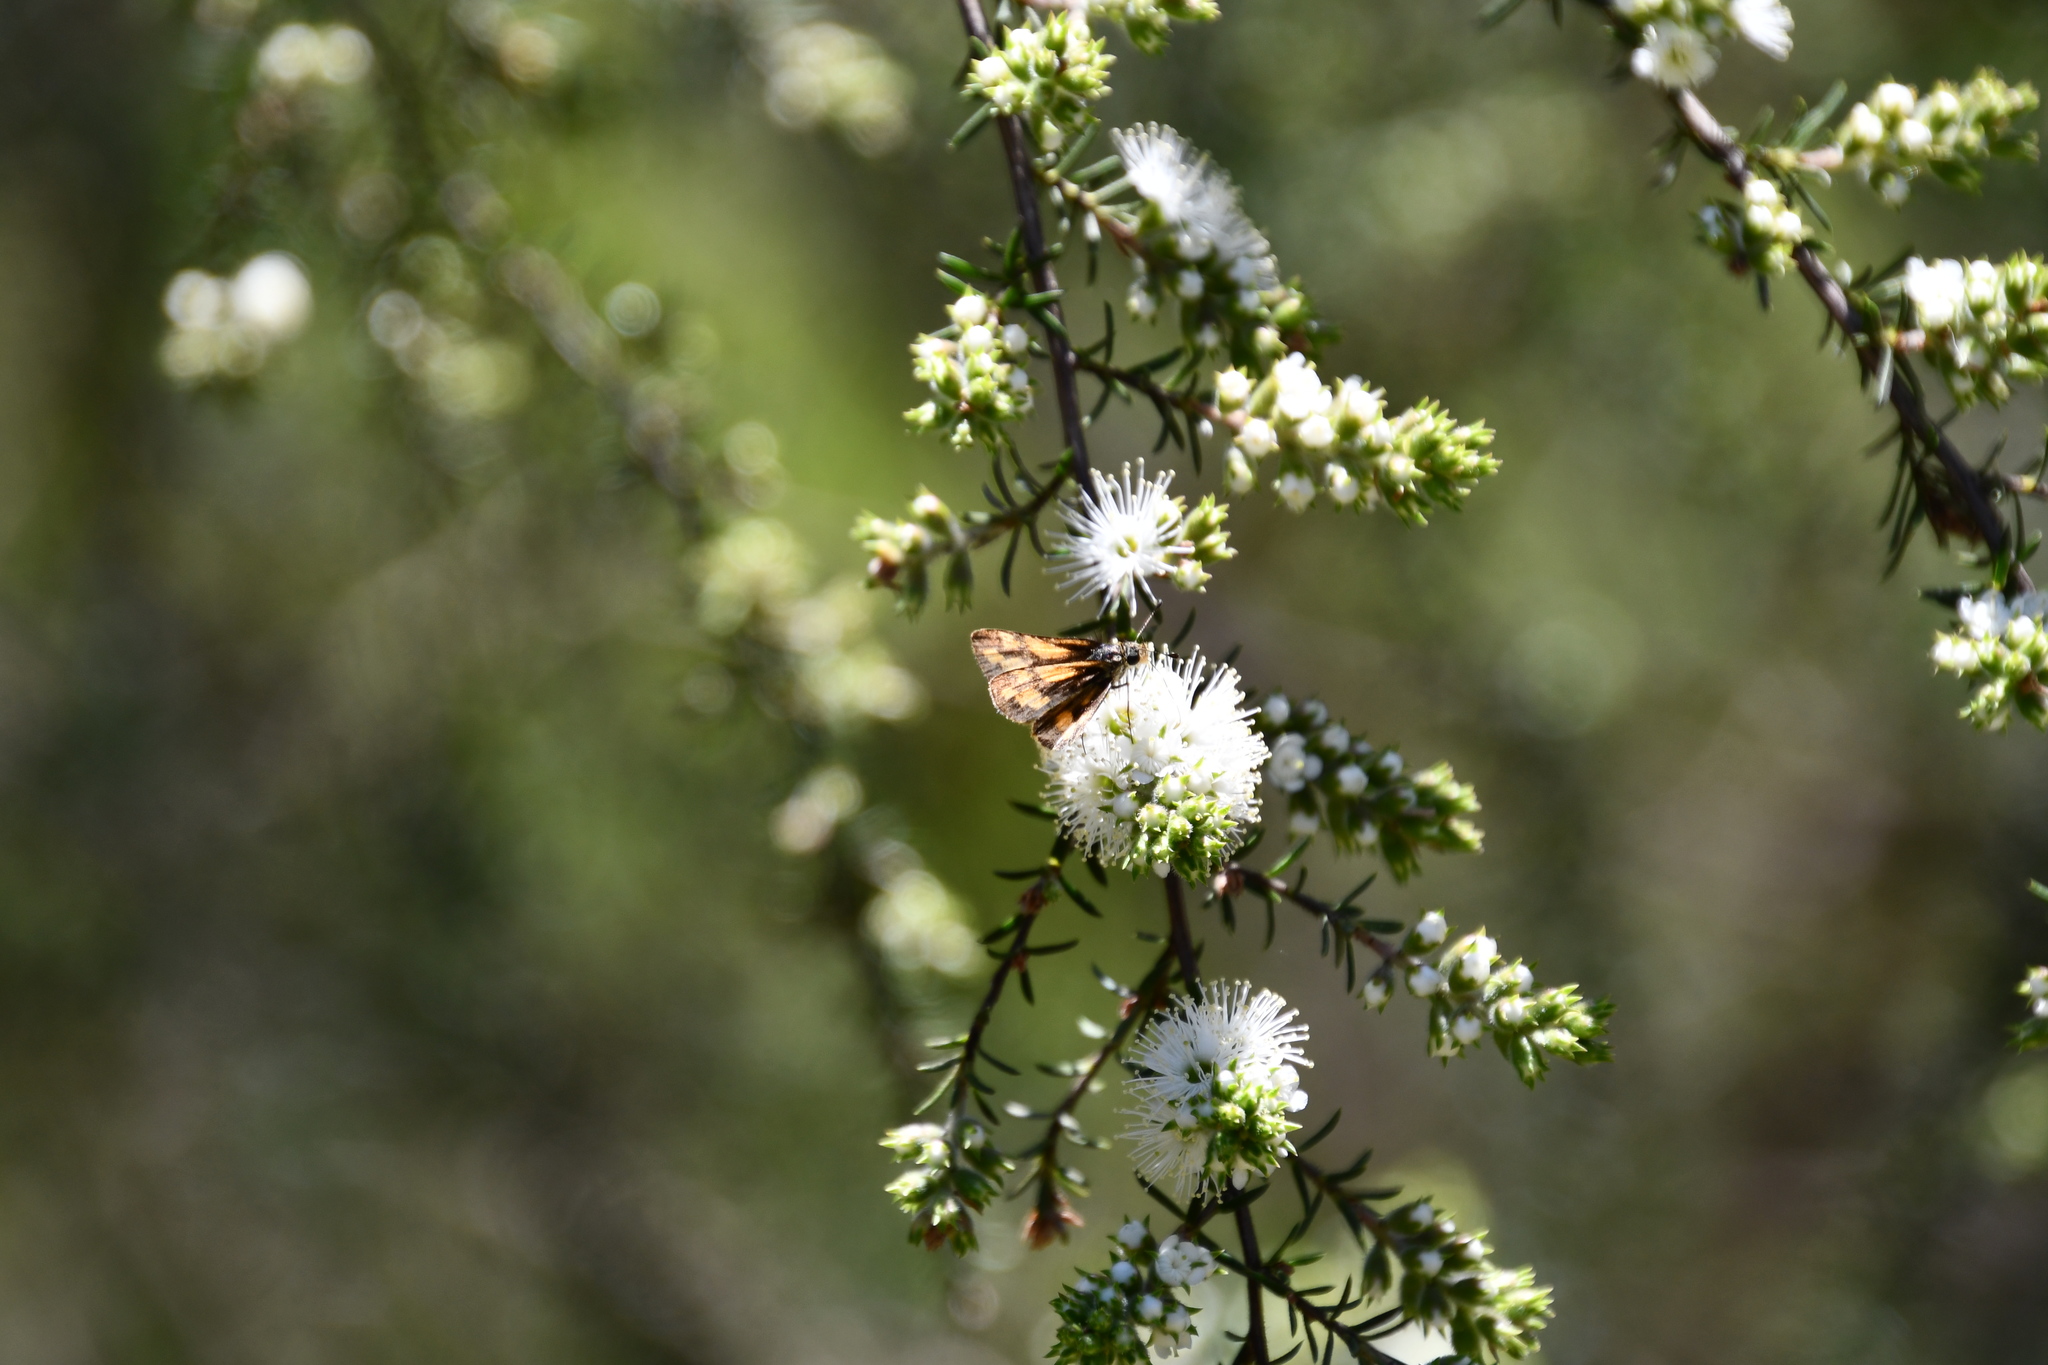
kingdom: Animalia
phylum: Arthropoda
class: Insecta
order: Lepidoptera
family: Hesperiidae
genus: Ocybadistes
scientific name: Ocybadistes walkeri
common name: Yellow-banded dart
